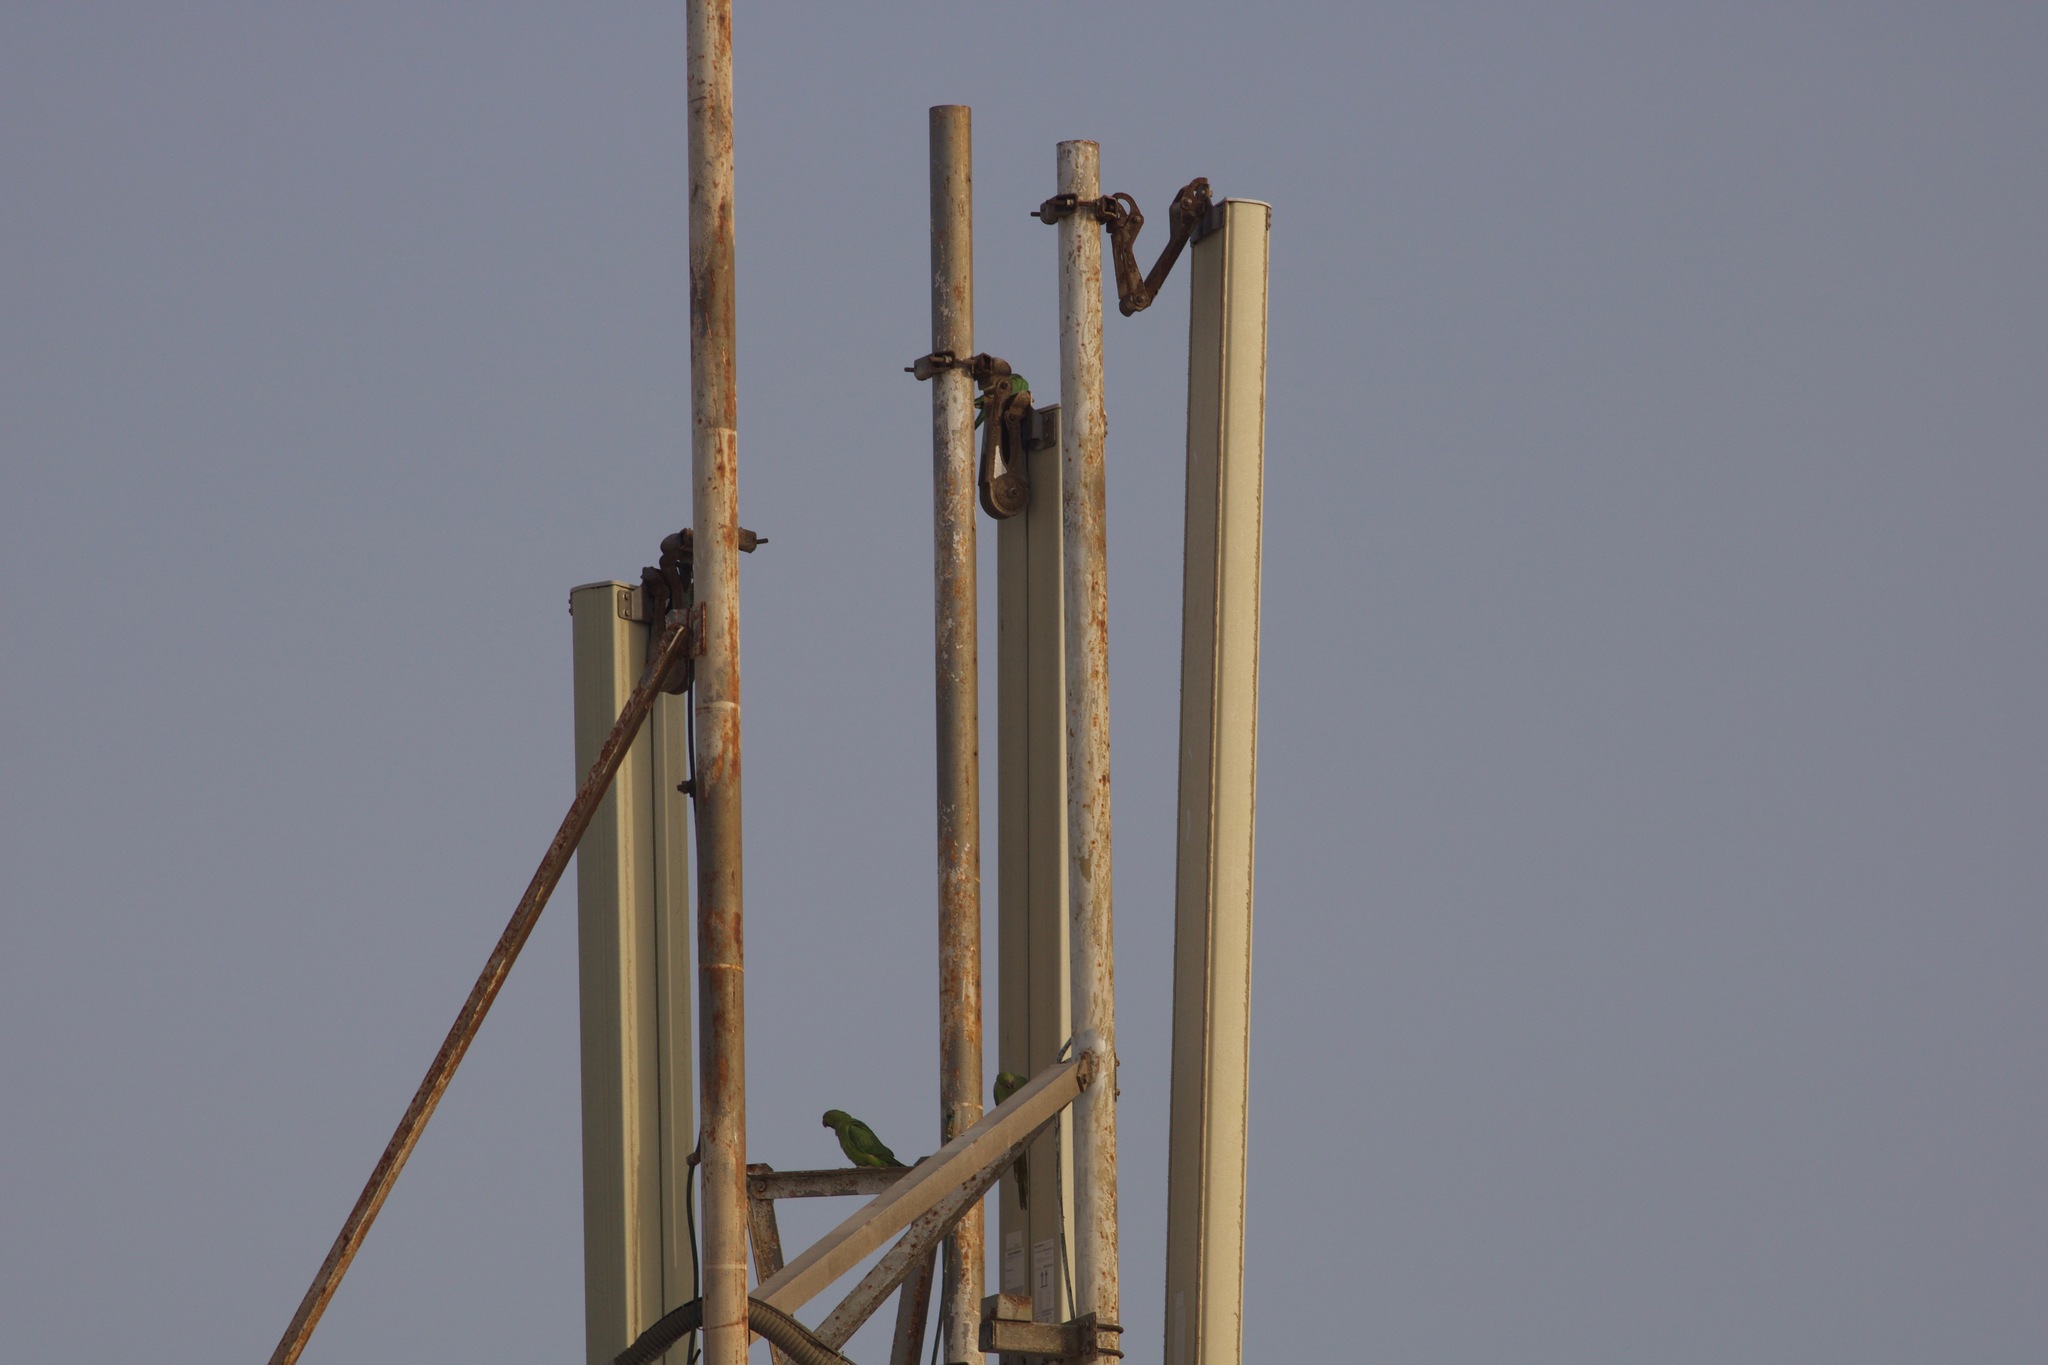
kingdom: Animalia
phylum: Chordata
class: Aves
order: Psittaciformes
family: Psittacidae
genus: Psittacula
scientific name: Psittacula krameri
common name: Rose-ringed parakeet
